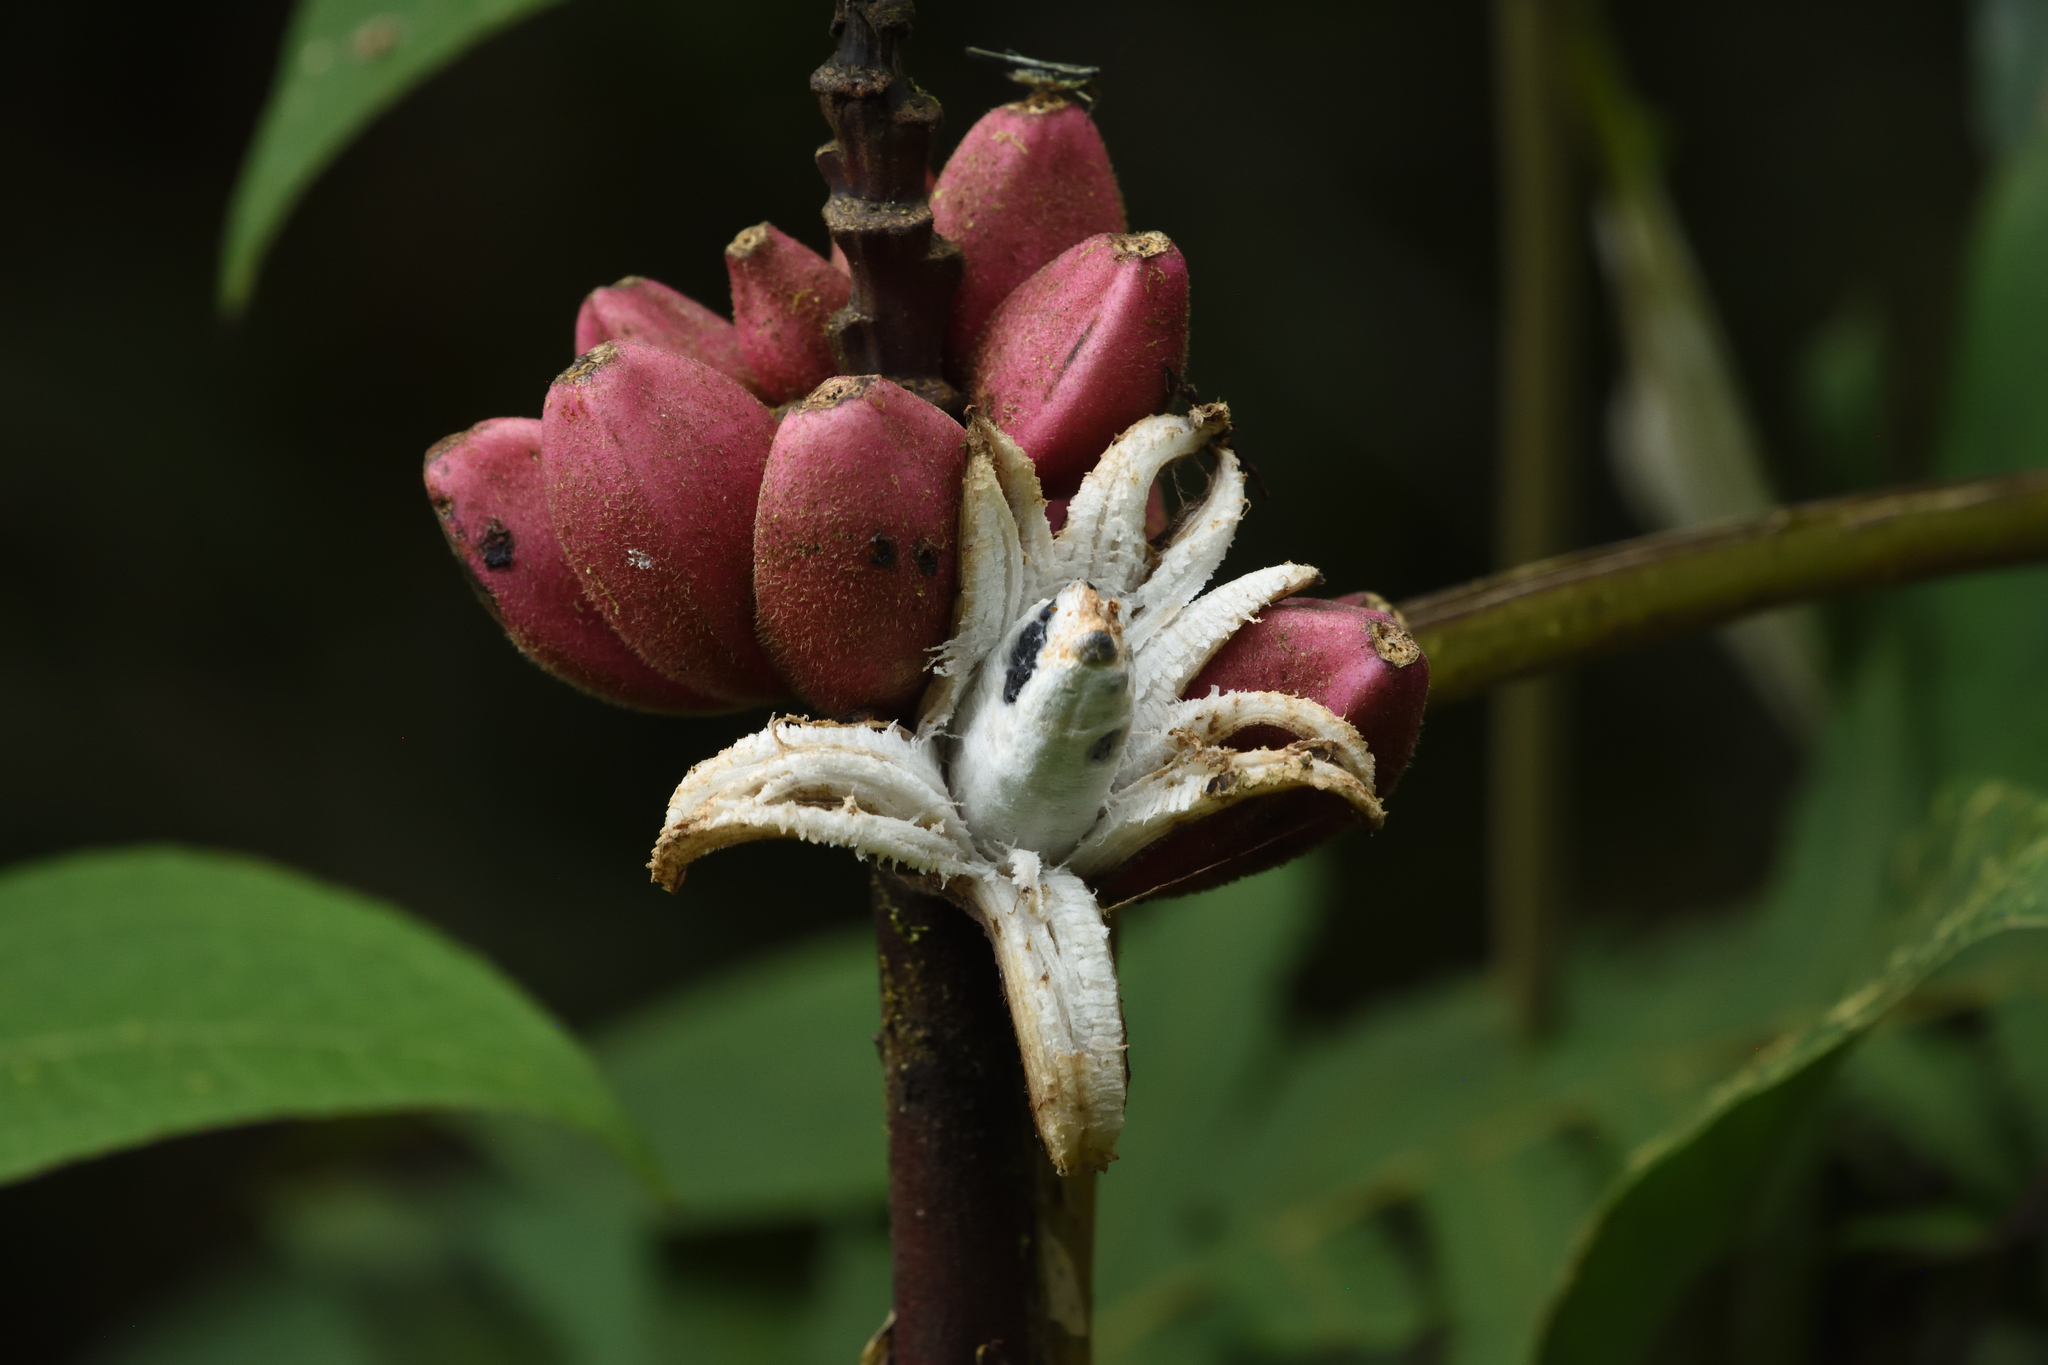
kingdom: Plantae
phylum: Tracheophyta
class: Liliopsida
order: Zingiberales
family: Musaceae
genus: Musa
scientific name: Musa velutina
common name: Pink velvet banana
